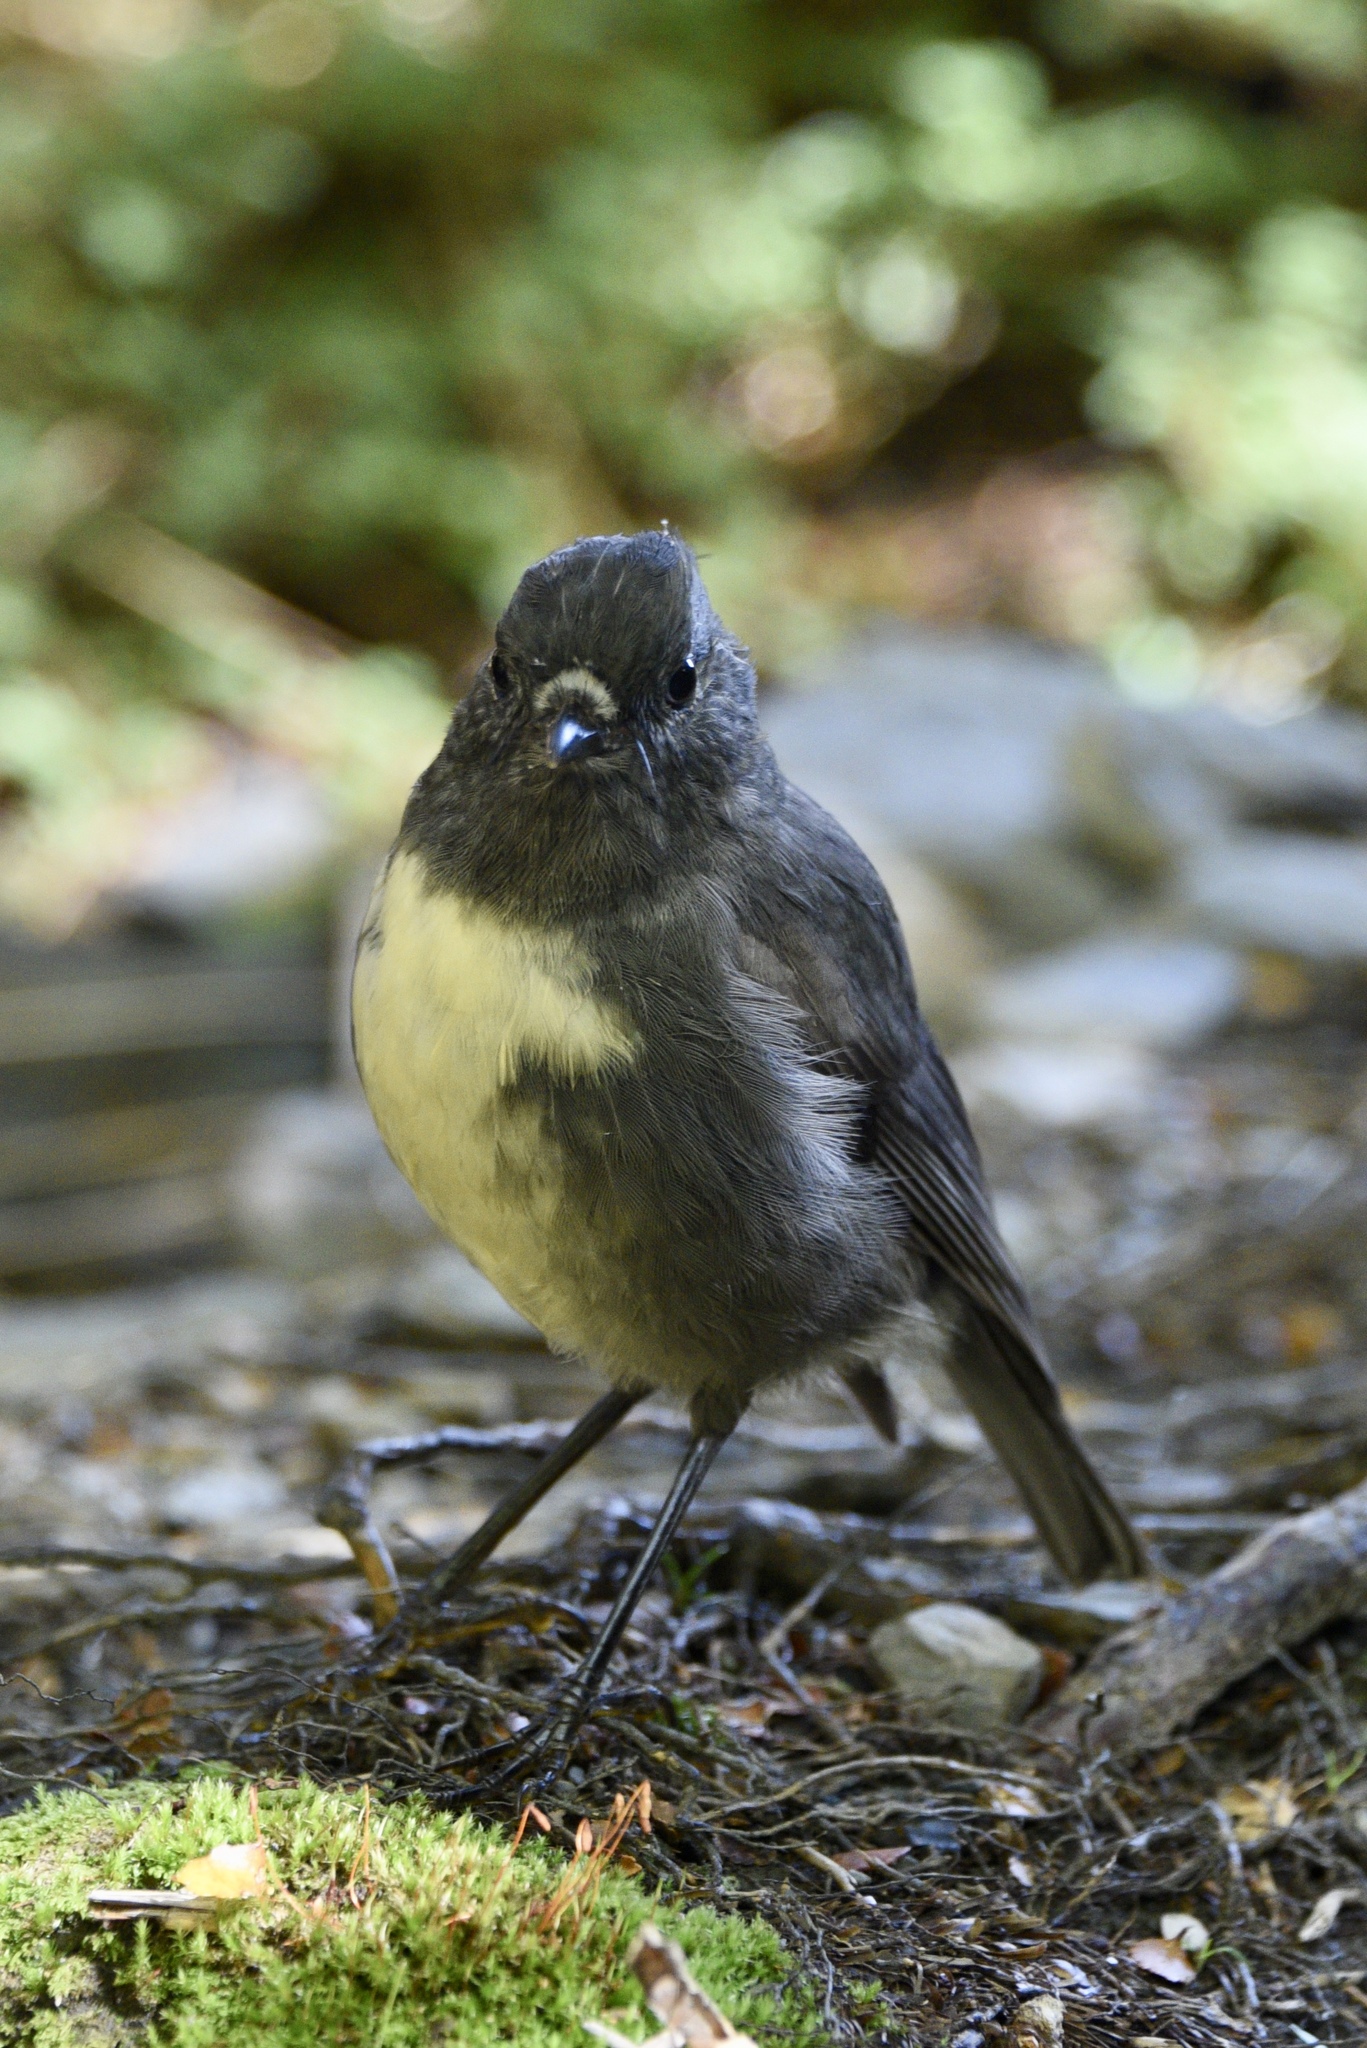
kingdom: Animalia
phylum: Chordata
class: Aves
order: Passeriformes
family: Petroicidae
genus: Petroica
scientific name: Petroica australis
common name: New zealand robin
